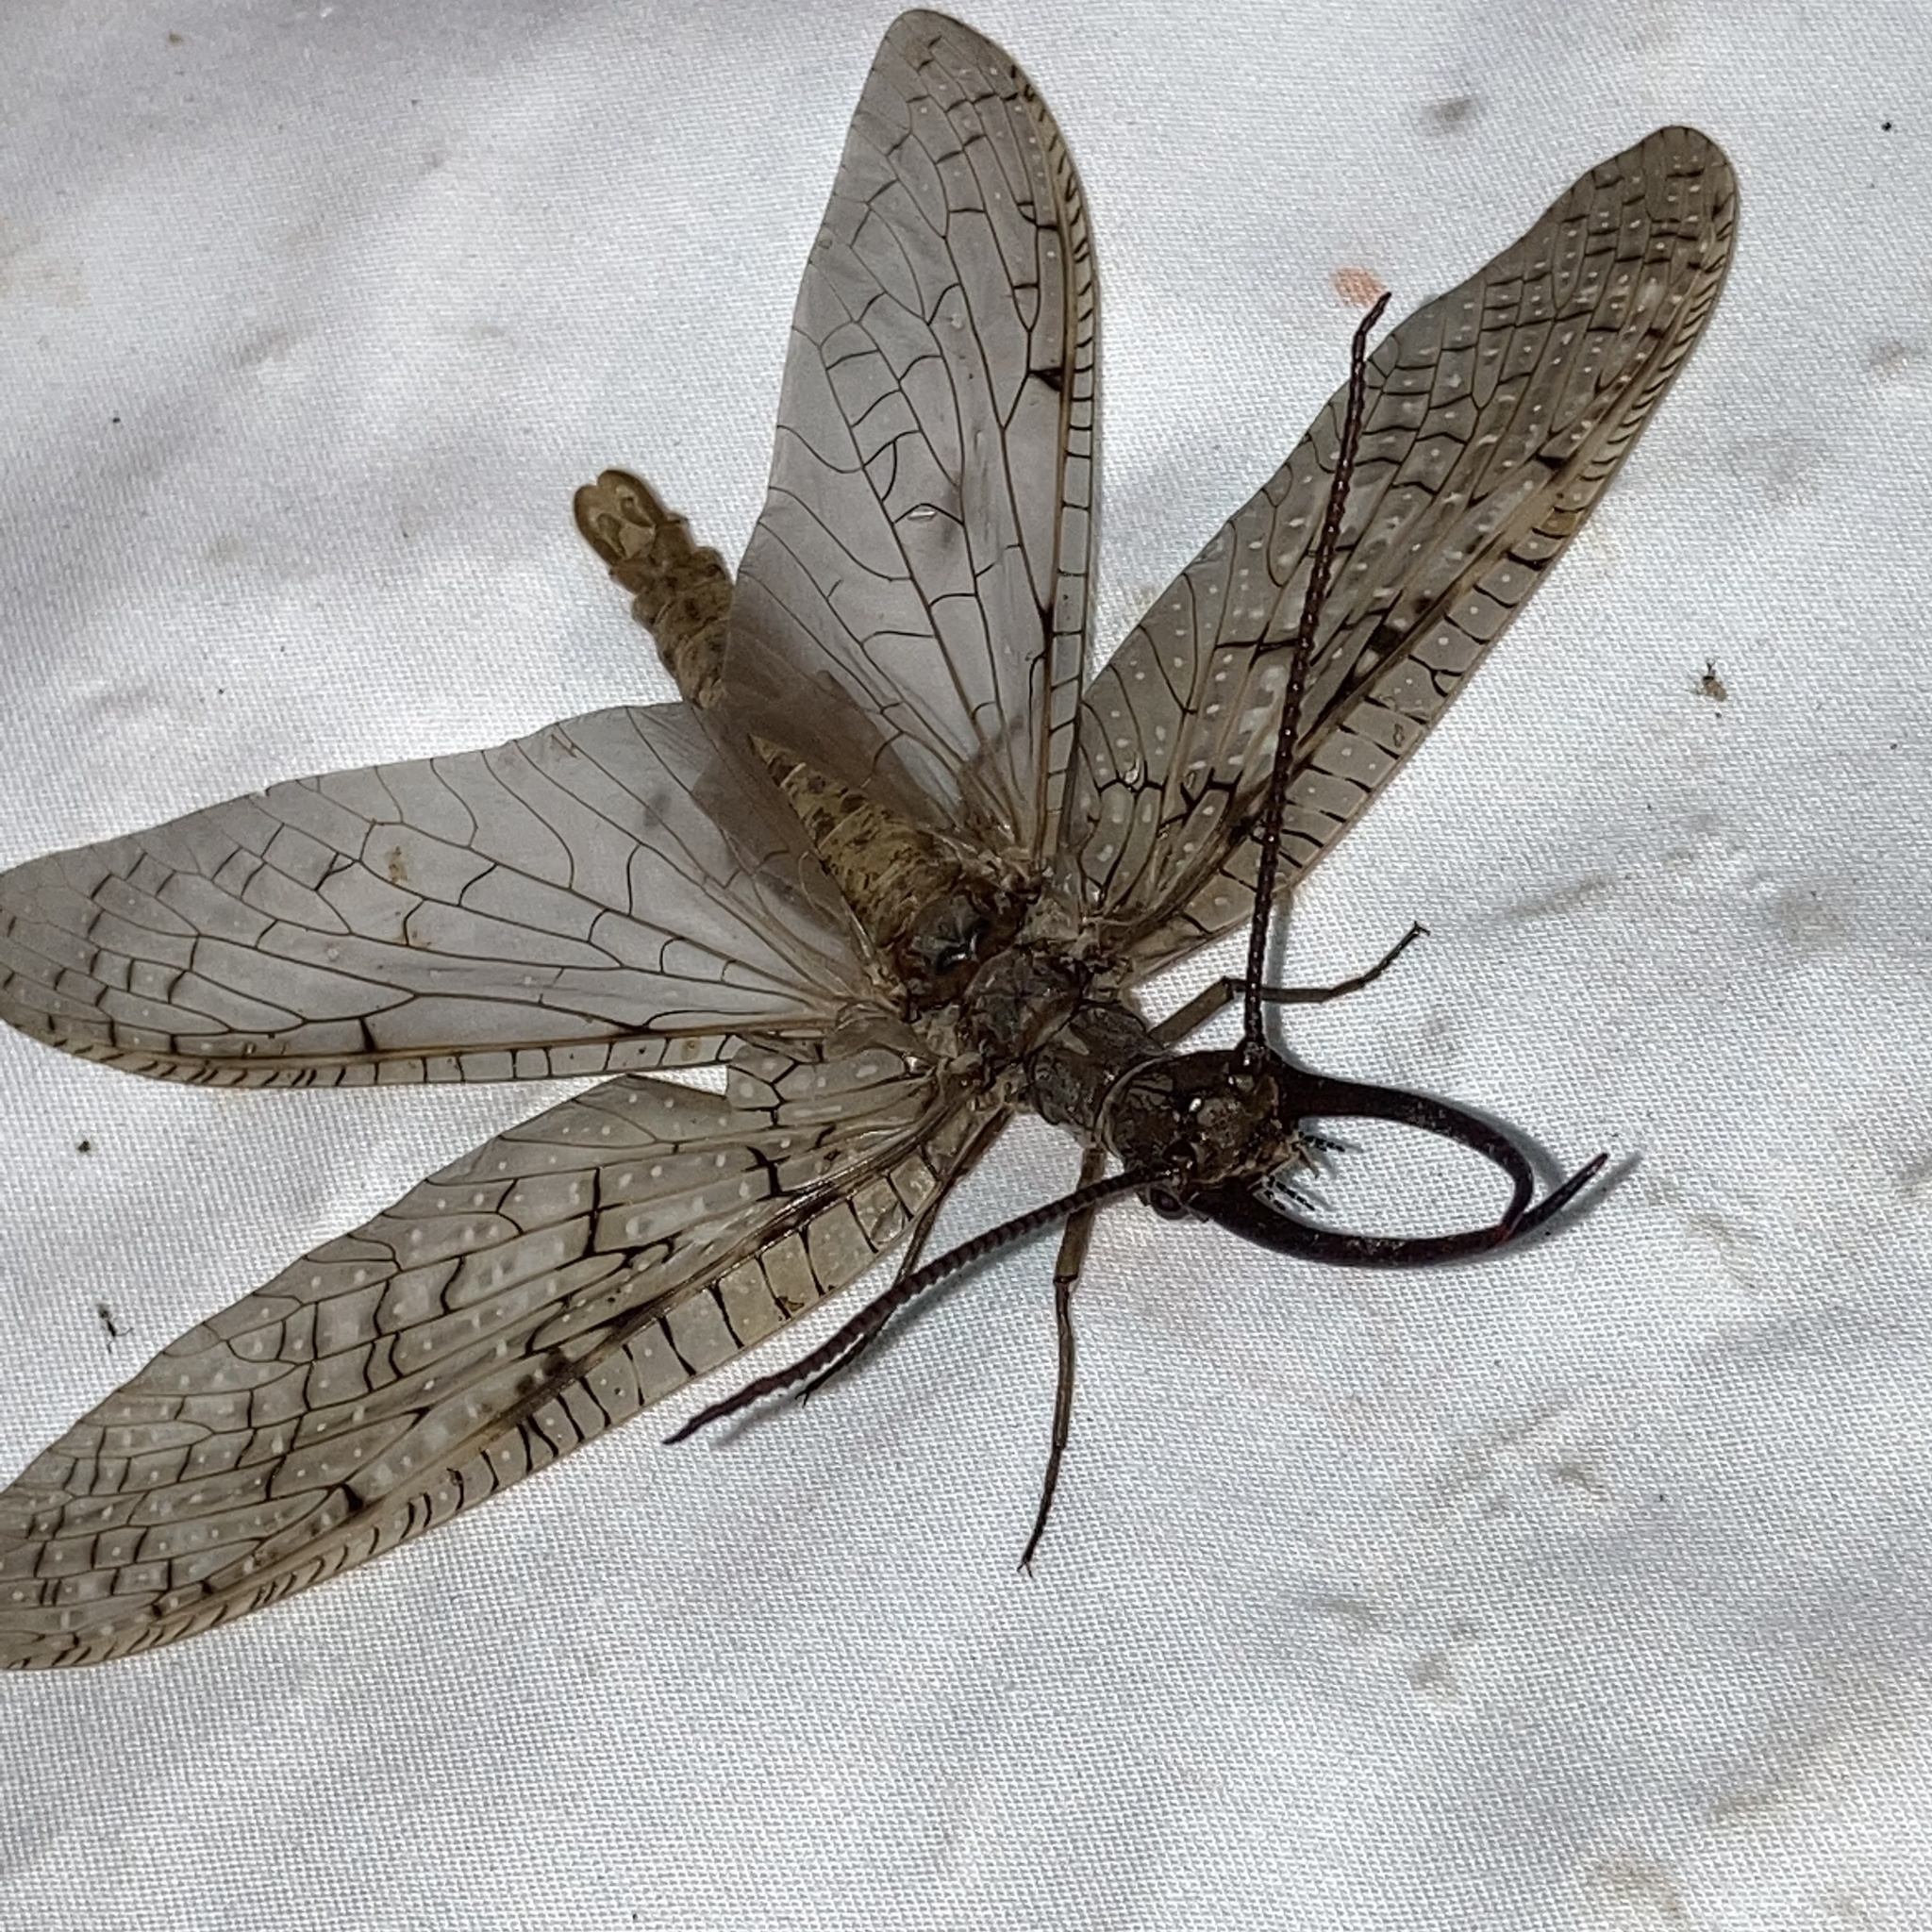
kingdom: Animalia
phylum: Arthropoda
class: Insecta
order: Megaloptera
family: Corydalidae
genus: Corydalus
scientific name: Corydalus cornutus
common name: Dobsonfly
